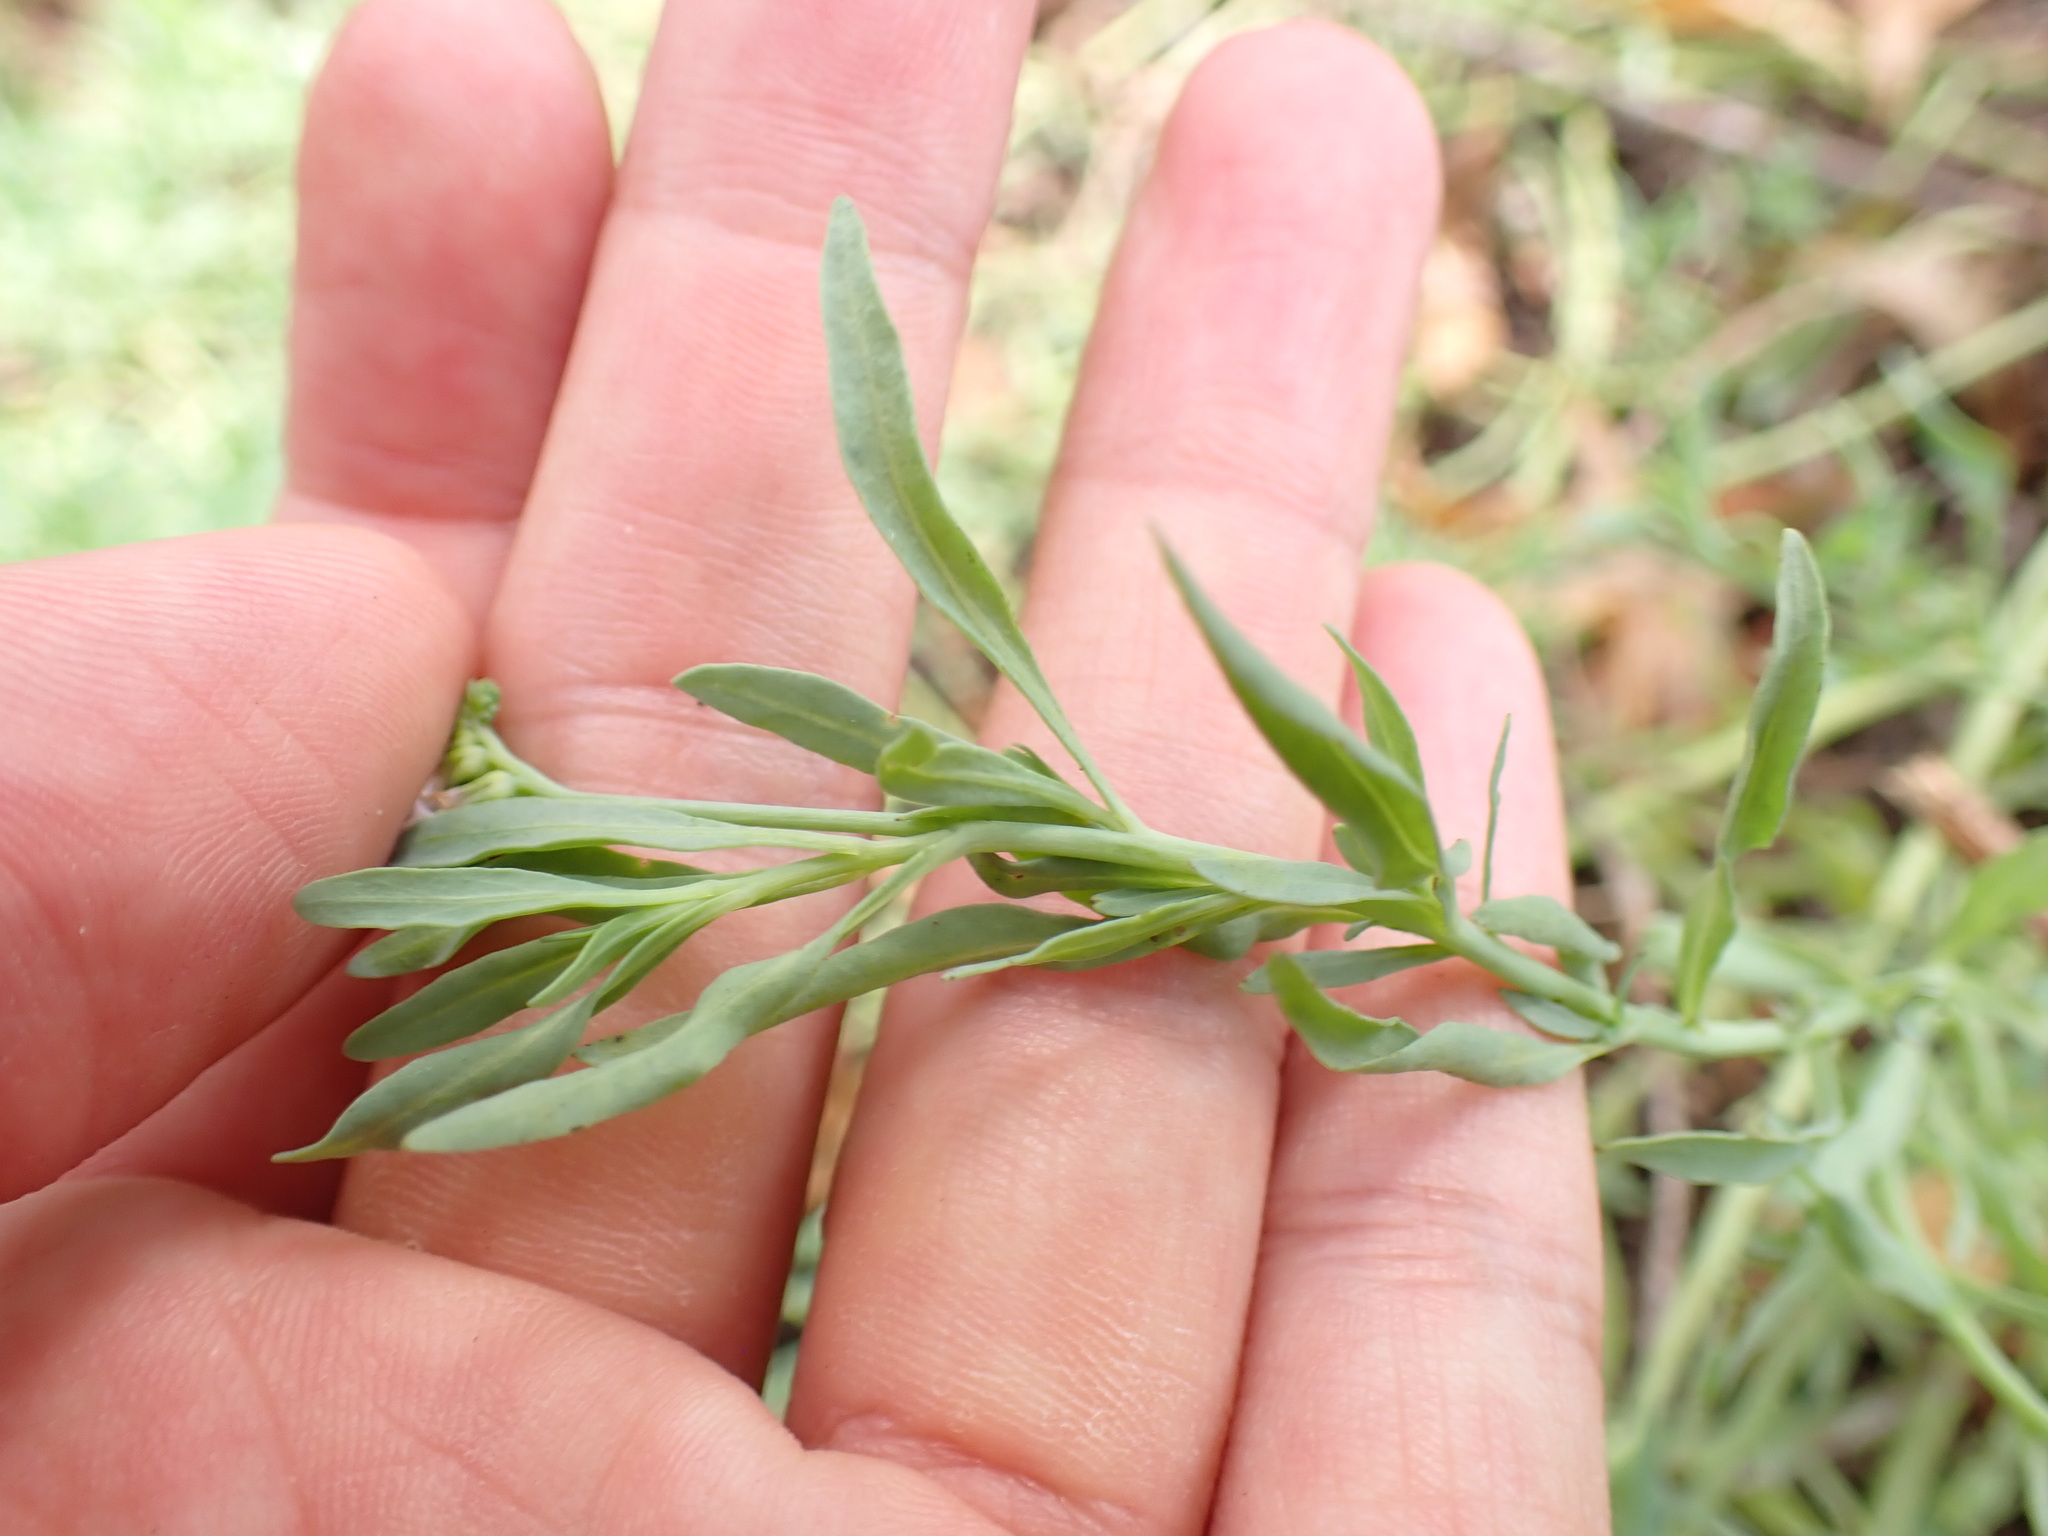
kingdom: Plantae
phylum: Tracheophyta
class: Magnoliopsida
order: Boraginales
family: Heliotropiaceae
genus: Heliotropium
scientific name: Heliotropium curassavicum
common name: Seaside heliotrope
